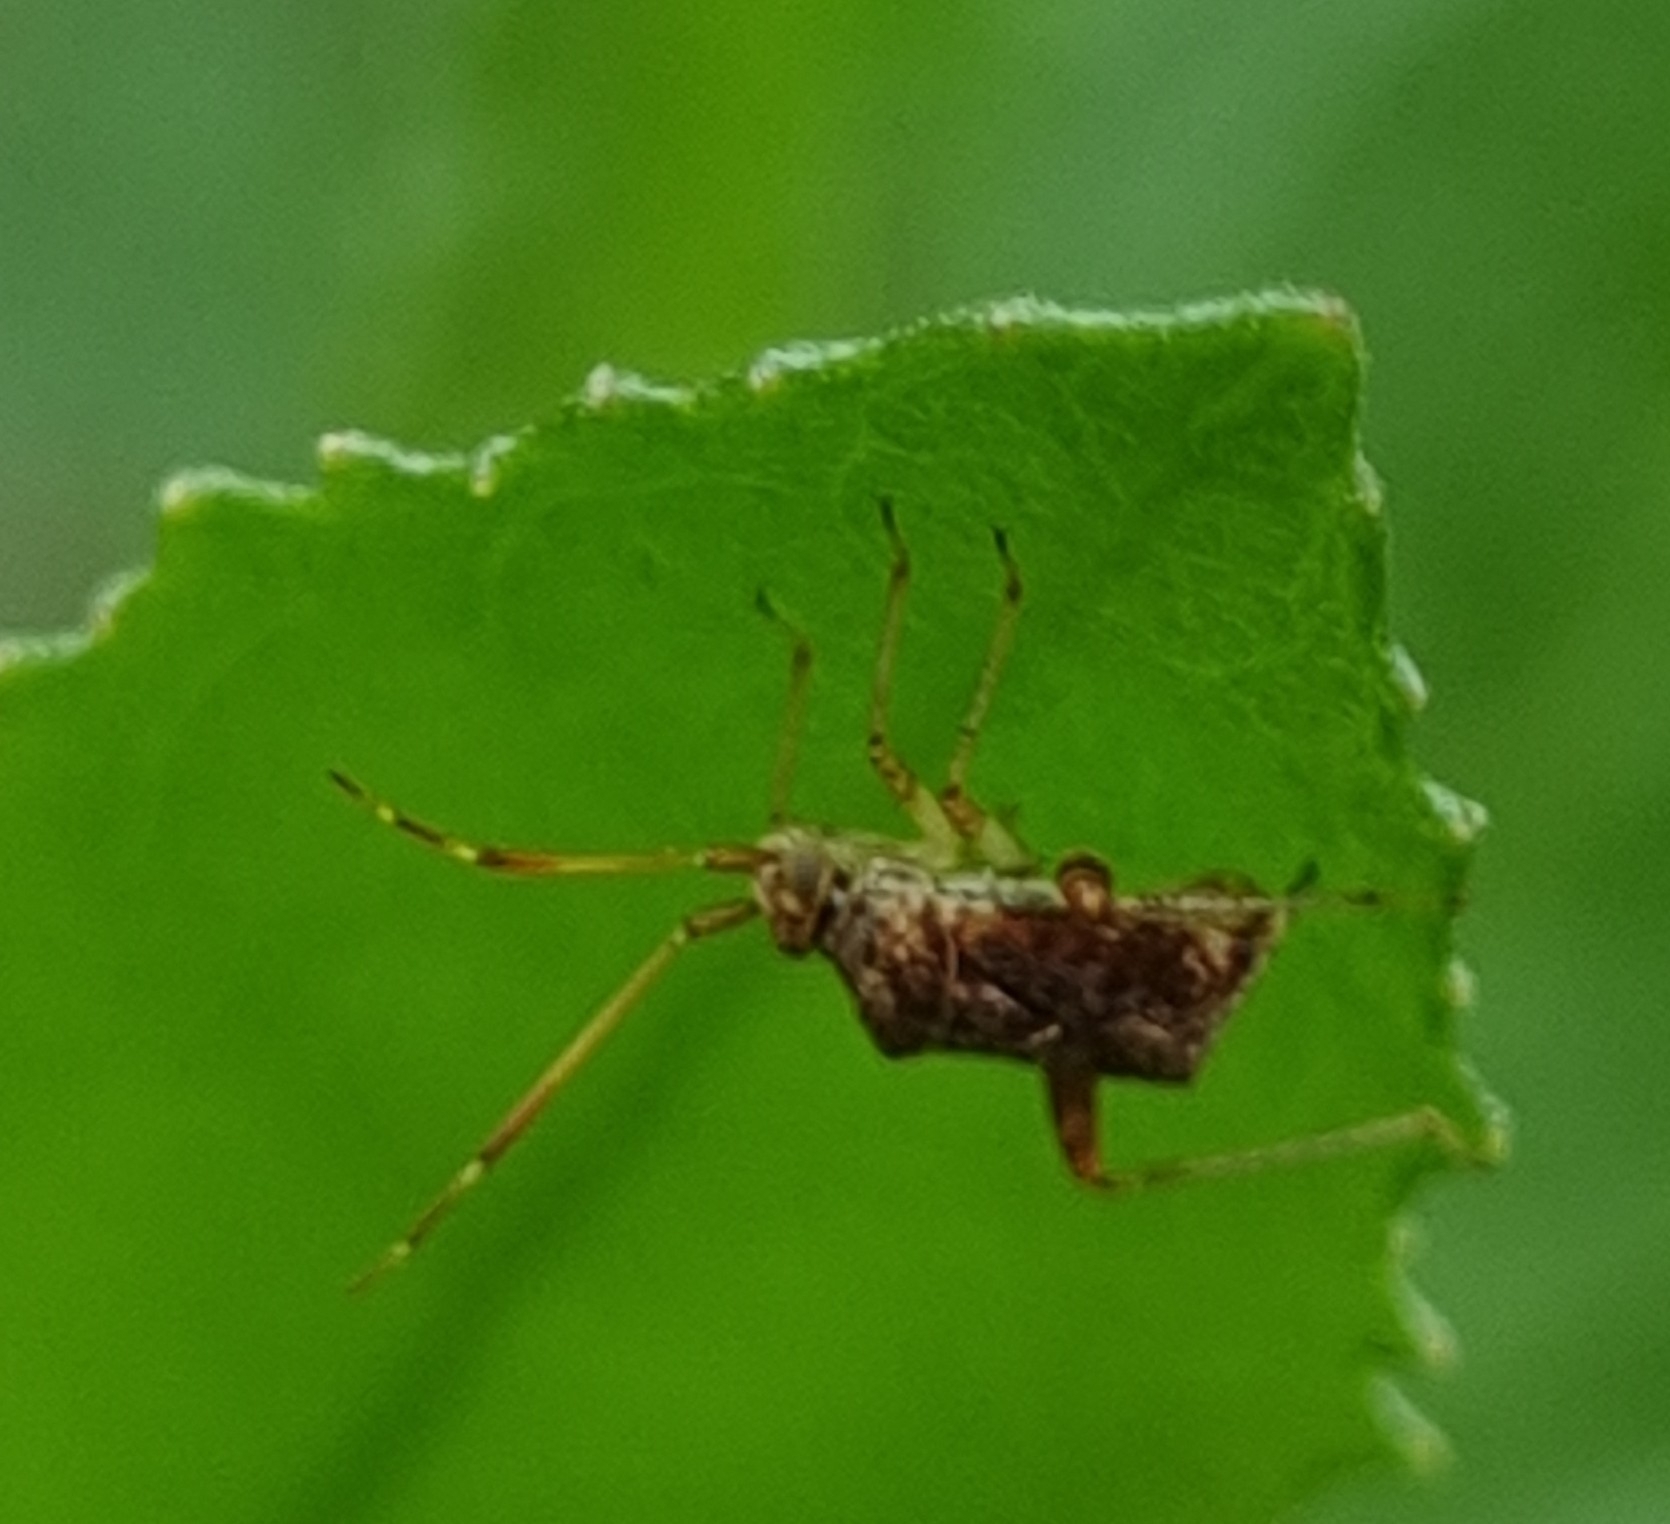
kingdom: Animalia
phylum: Arthropoda
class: Insecta
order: Hemiptera
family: Miridae
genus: Sidnia
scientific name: Sidnia kinbergi
